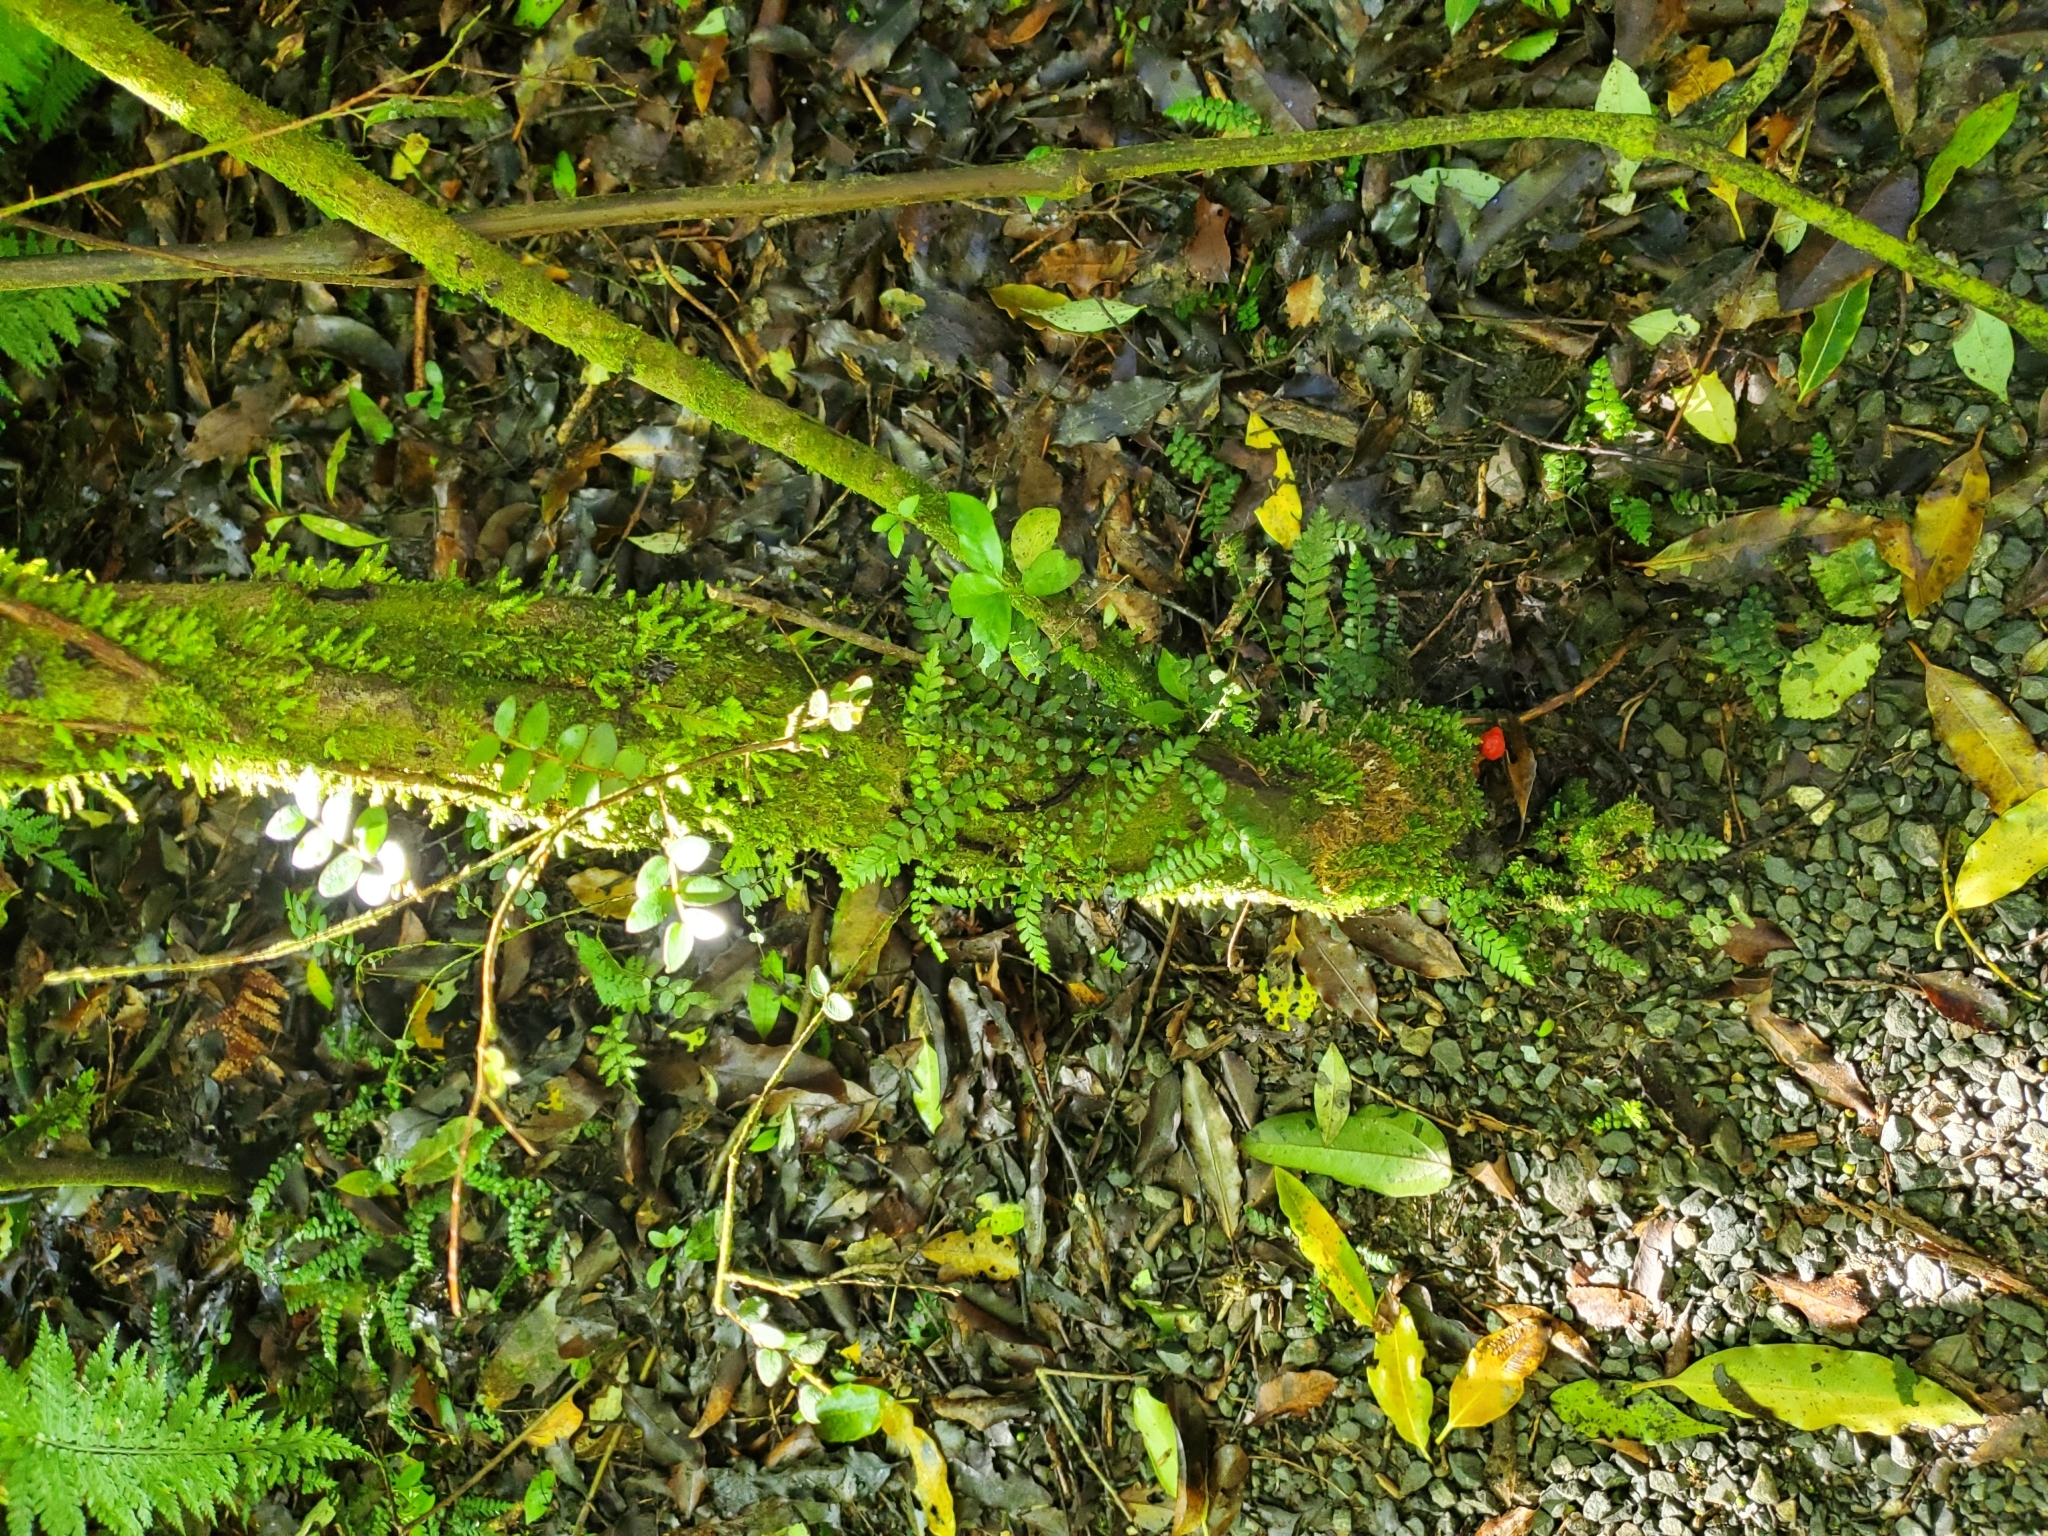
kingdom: Fungi
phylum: Basidiomycota
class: Agaricomycetes
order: Agaricales
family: Strophariaceae
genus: Leratiomyces
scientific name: Leratiomyces erythrocephalus
